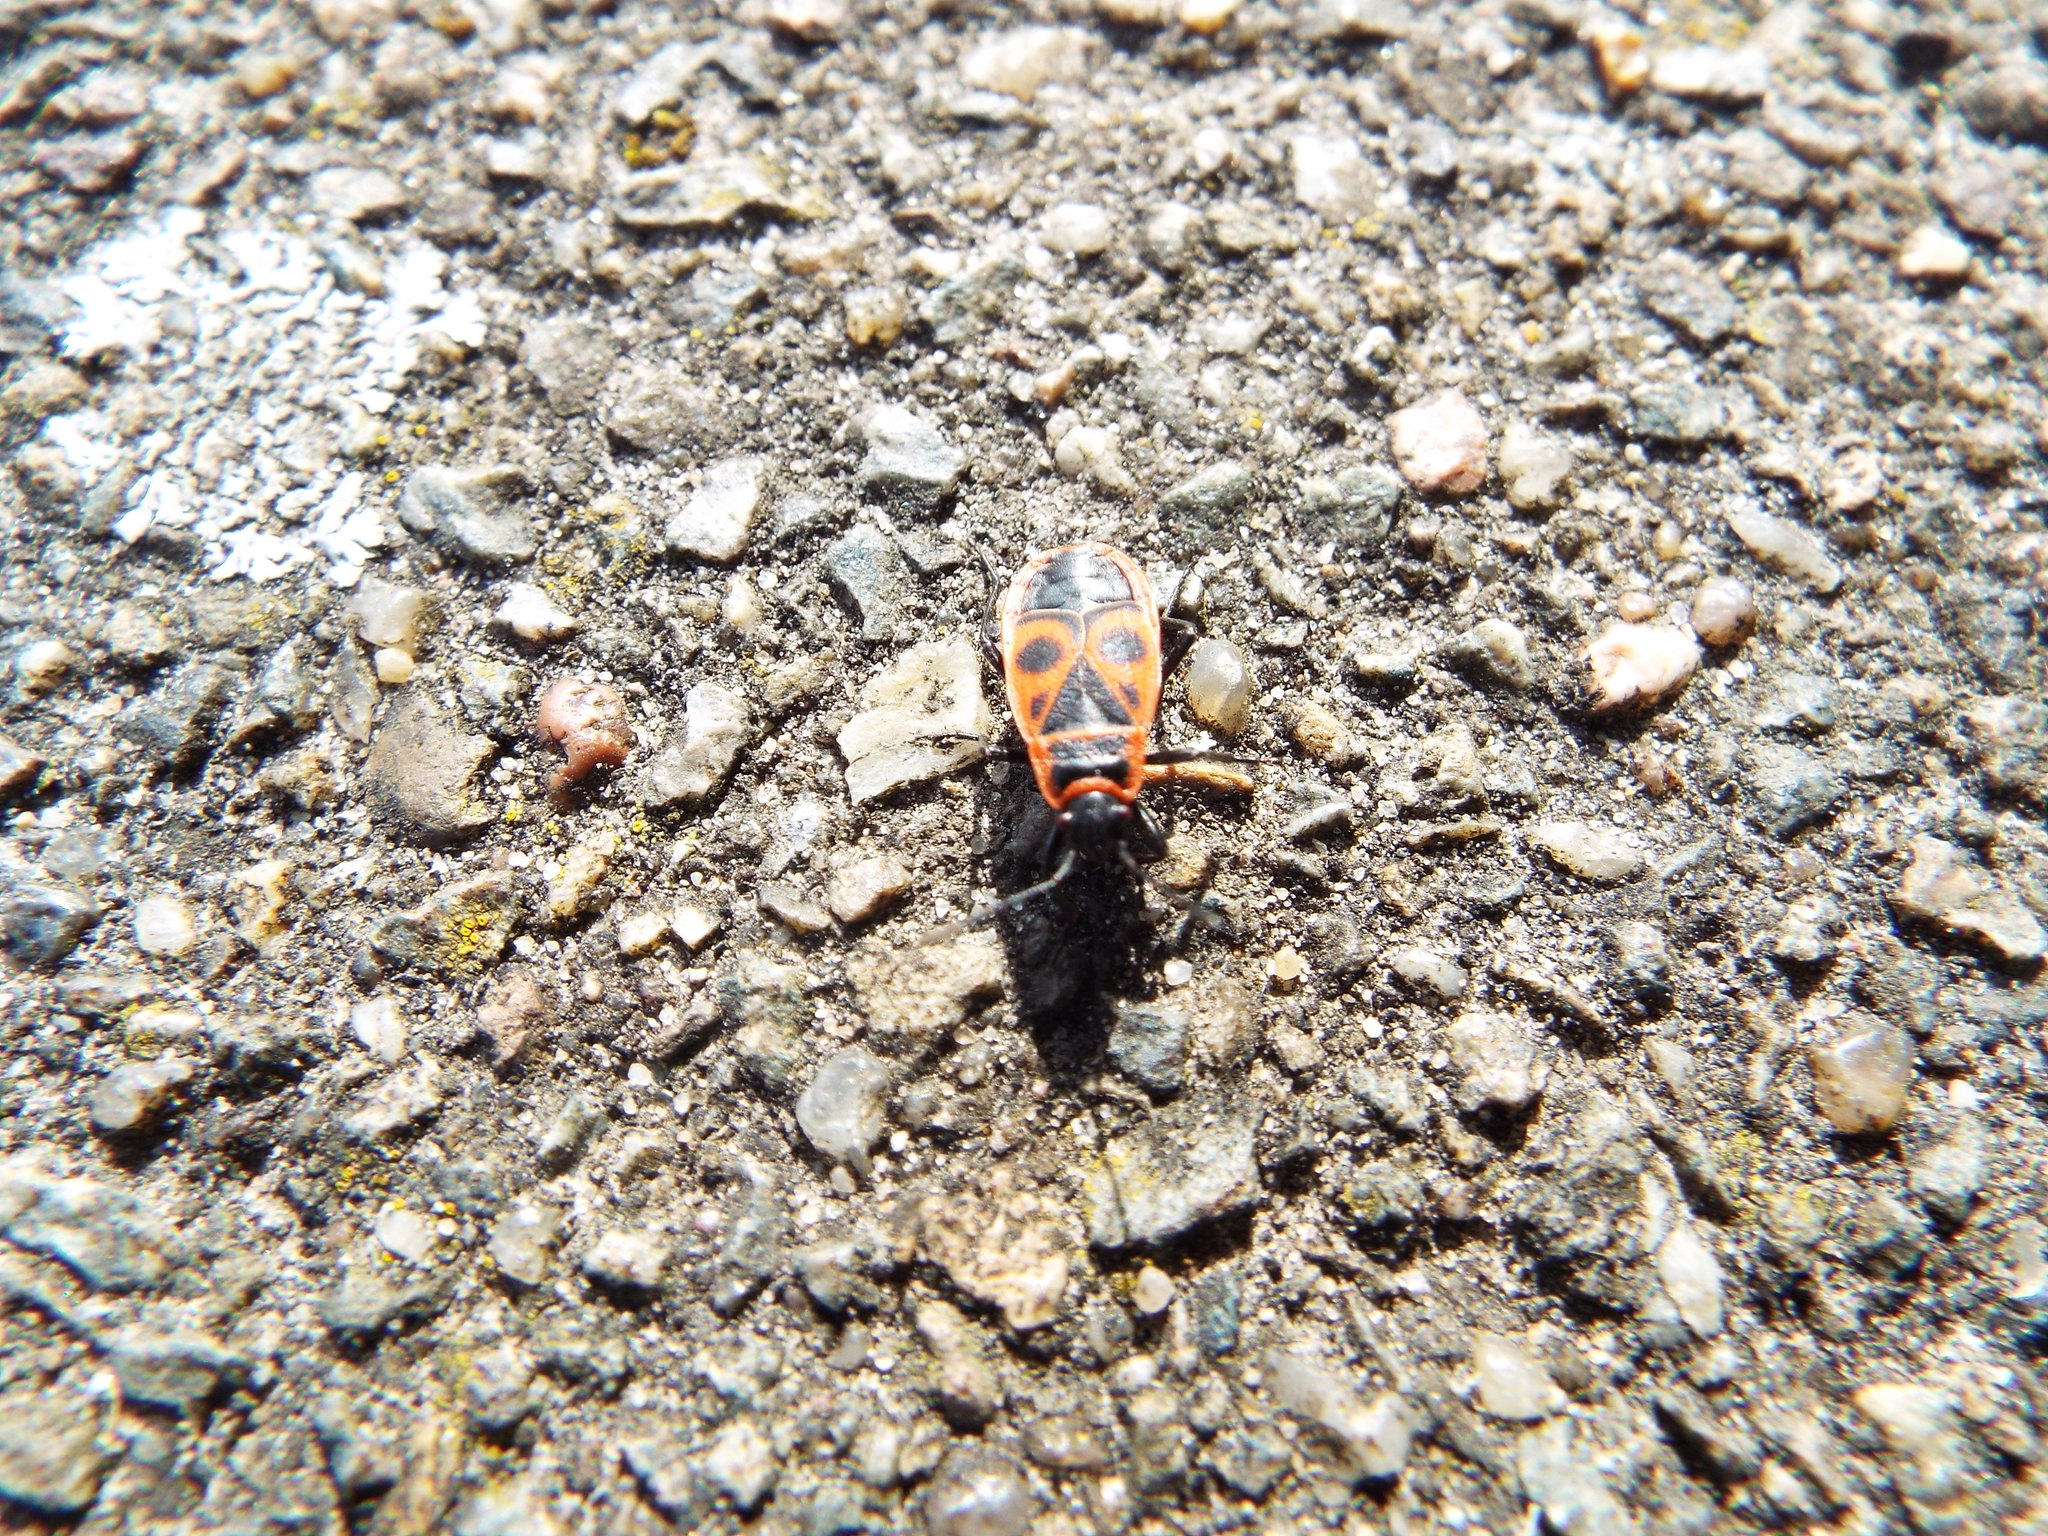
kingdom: Animalia
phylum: Arthropoda
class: Insecta
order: Hemiptera
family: Pyrrhocoridae
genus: Pyrrhocoris
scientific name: Pyrrhocoris apterus
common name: Firebug
